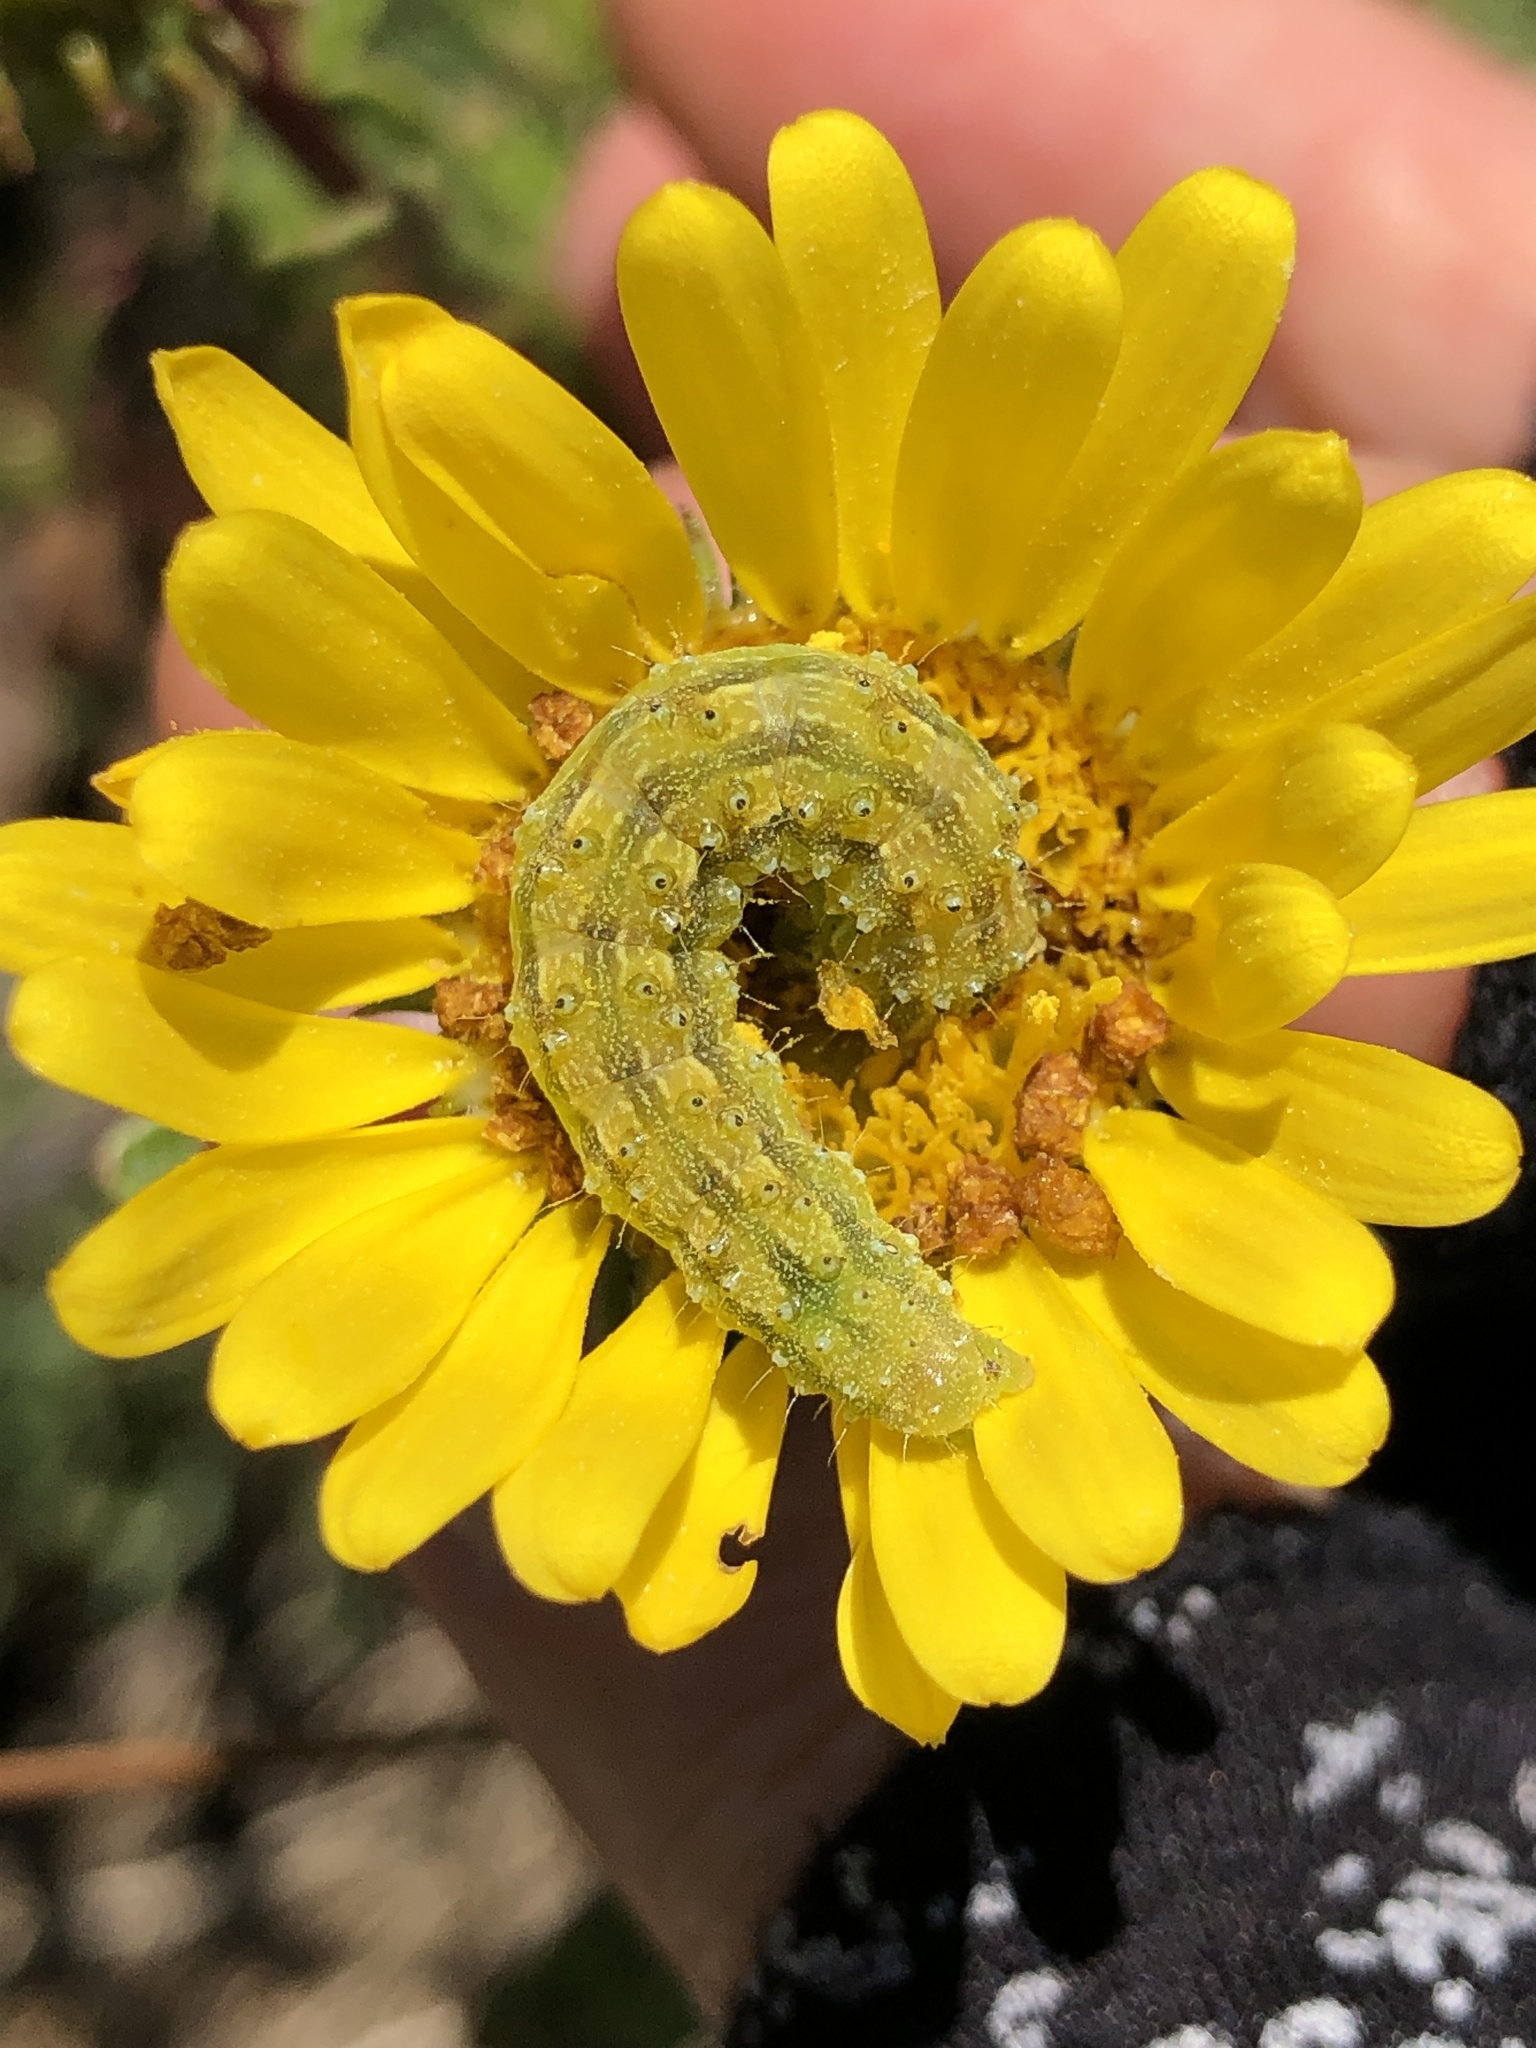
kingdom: Animalia
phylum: Arthropoda
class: Insecta
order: Lepidoptera
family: Noctuidae
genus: Heliothis
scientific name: Heliothis phloxiphaga
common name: Darker spotted straw moth
